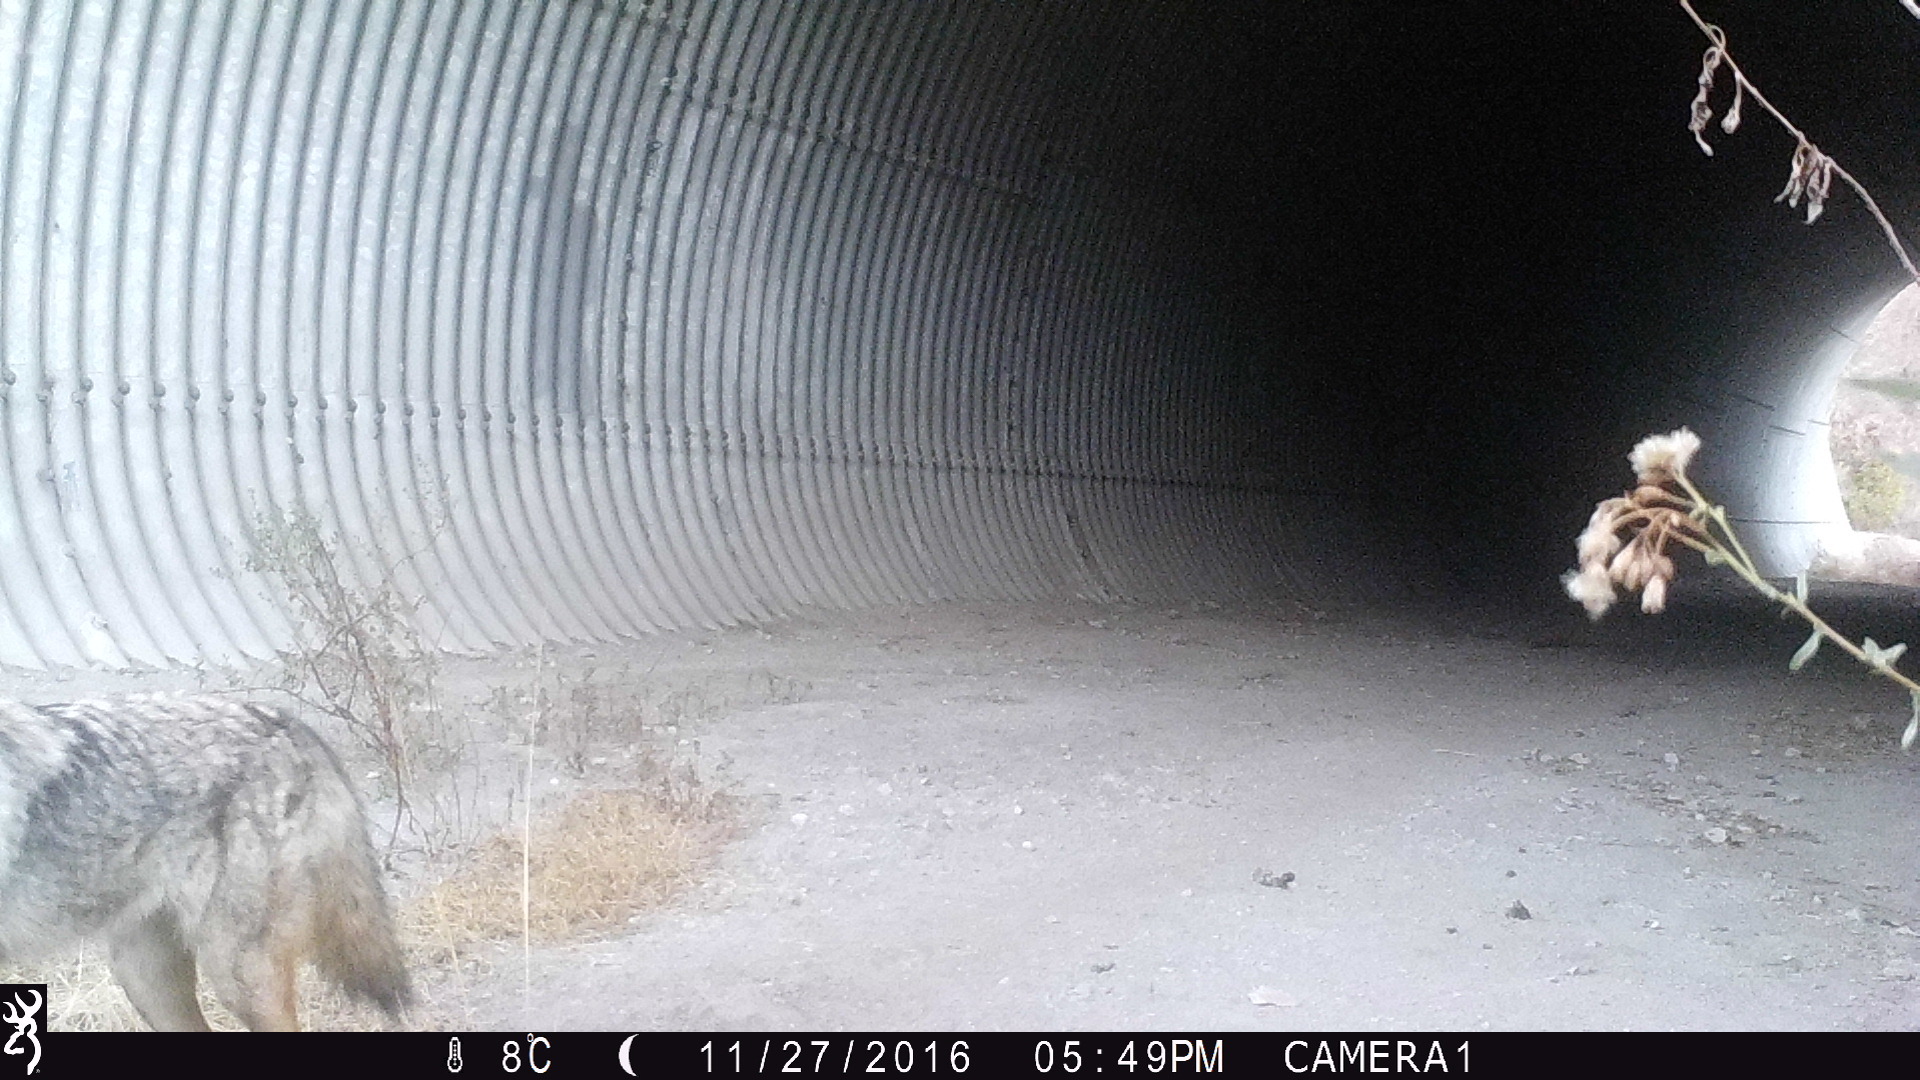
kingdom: Animalia
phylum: Chordata
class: Mammalia
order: Carnivora
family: Canidae
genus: Canis
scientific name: Canis latrans
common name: Coyote
